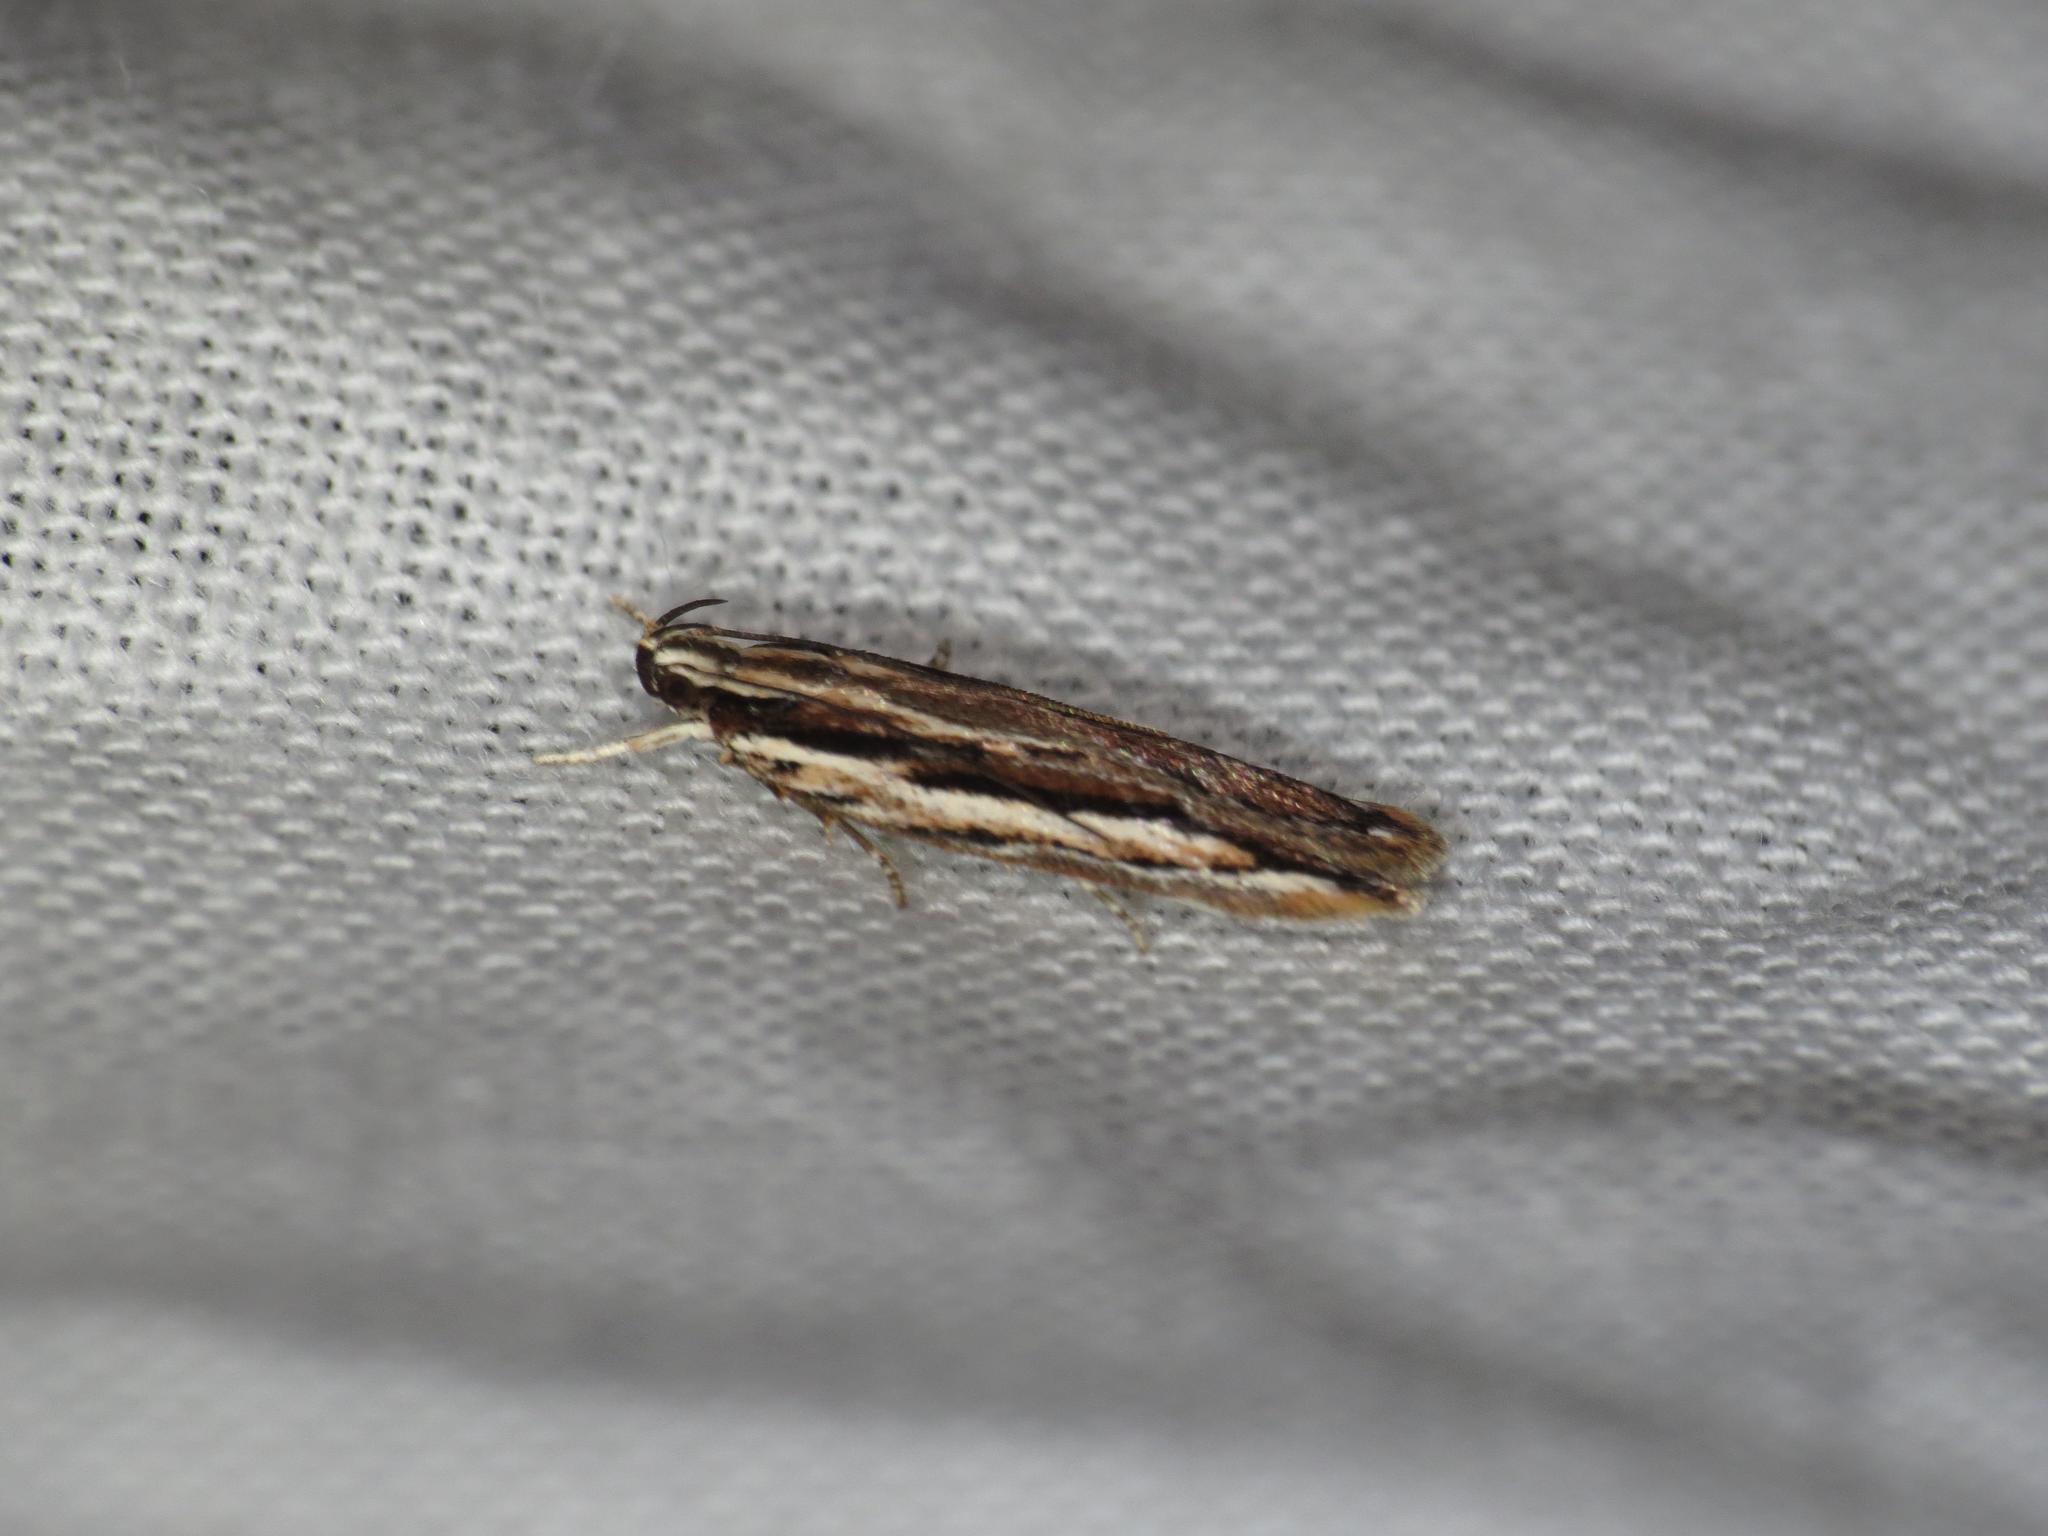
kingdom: Animalia
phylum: Arthropoda
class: Insecta
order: Lepidoptera
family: Gelechiidae
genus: Ardozyga
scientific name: Ardozyga obeliscota
